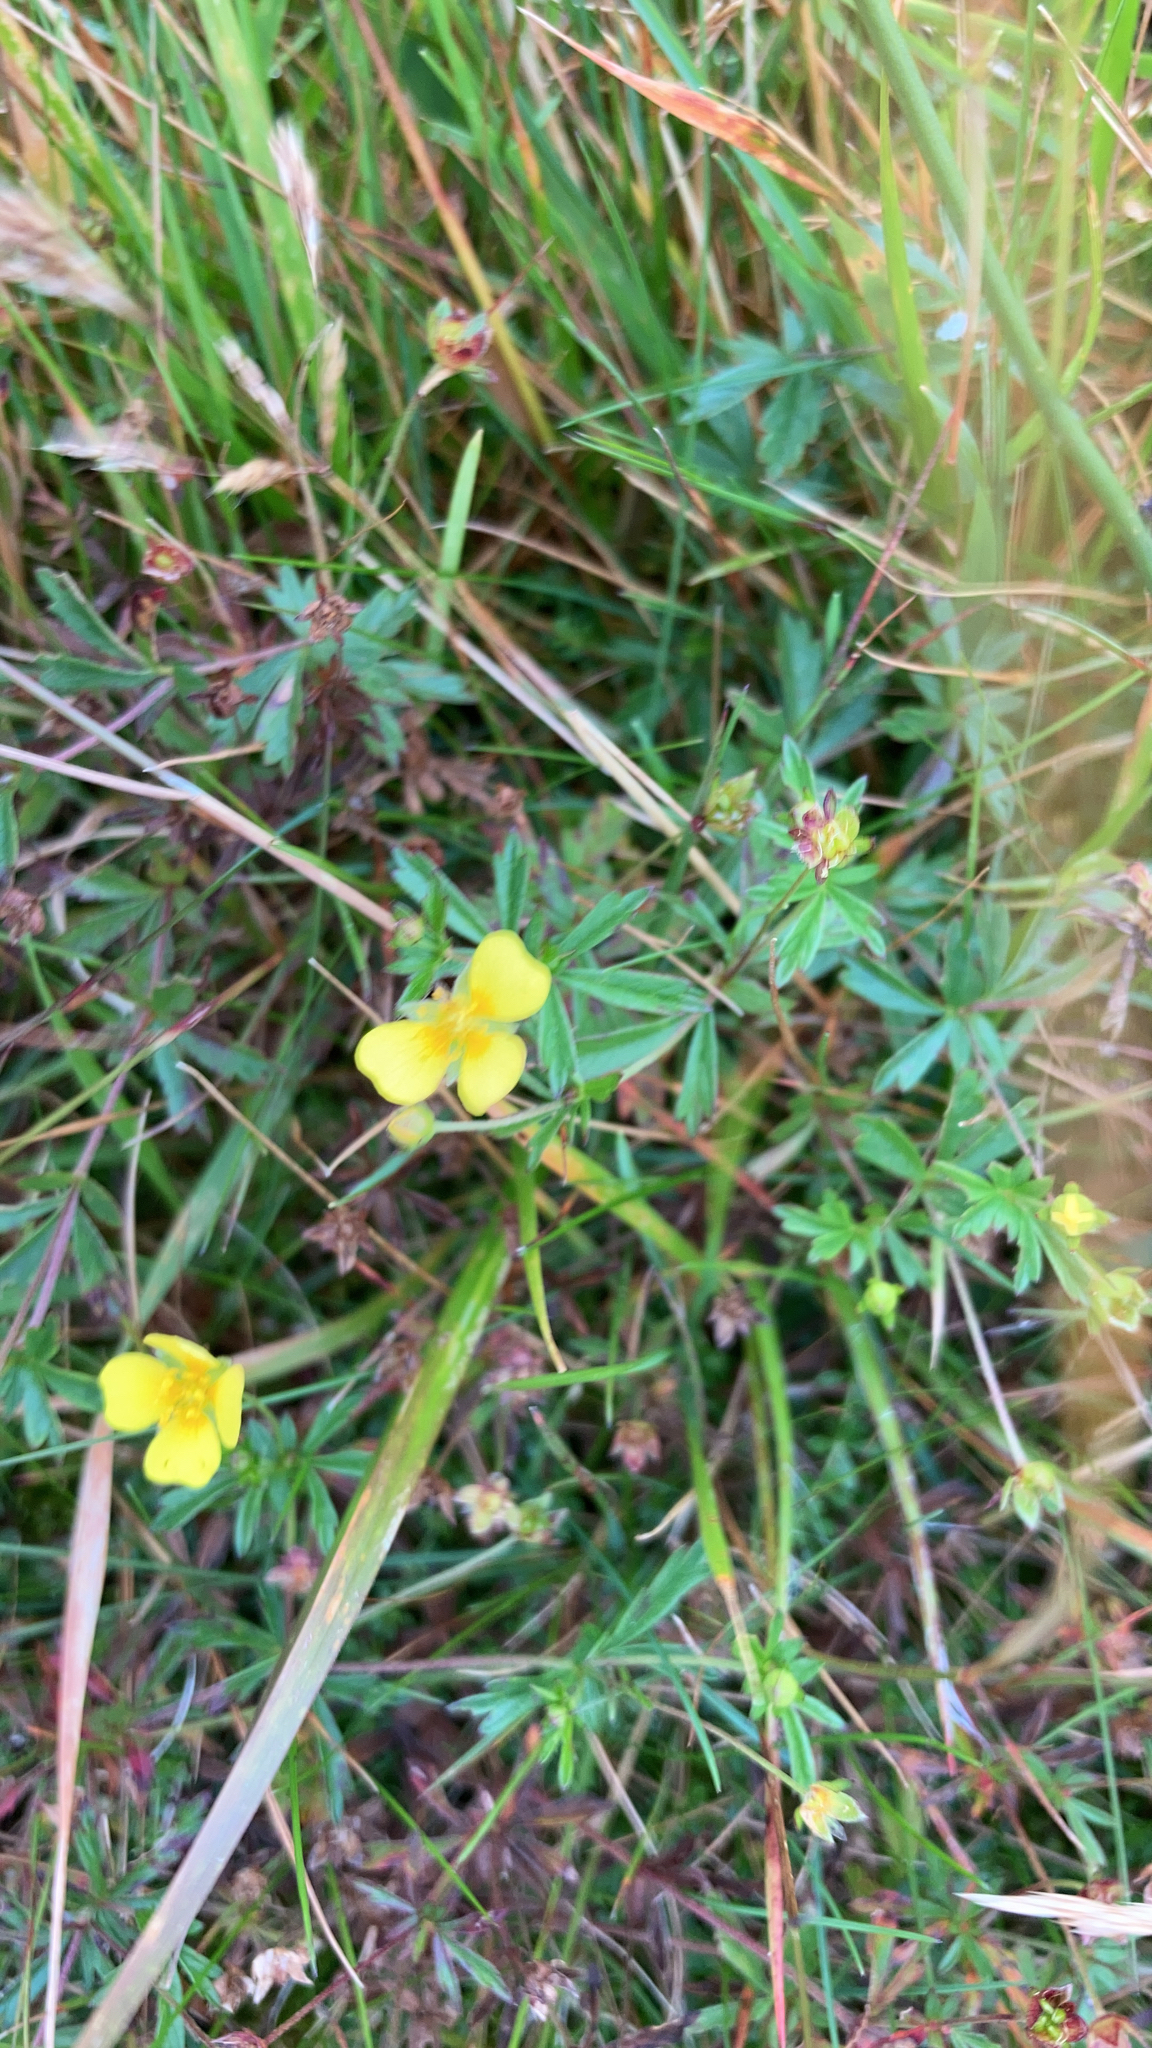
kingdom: Plantae
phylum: Tracheophyta
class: Magnoliopsida
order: Rosales
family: Rosaceae
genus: Potentilla
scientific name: Potentilla erecta
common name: Tormentil
